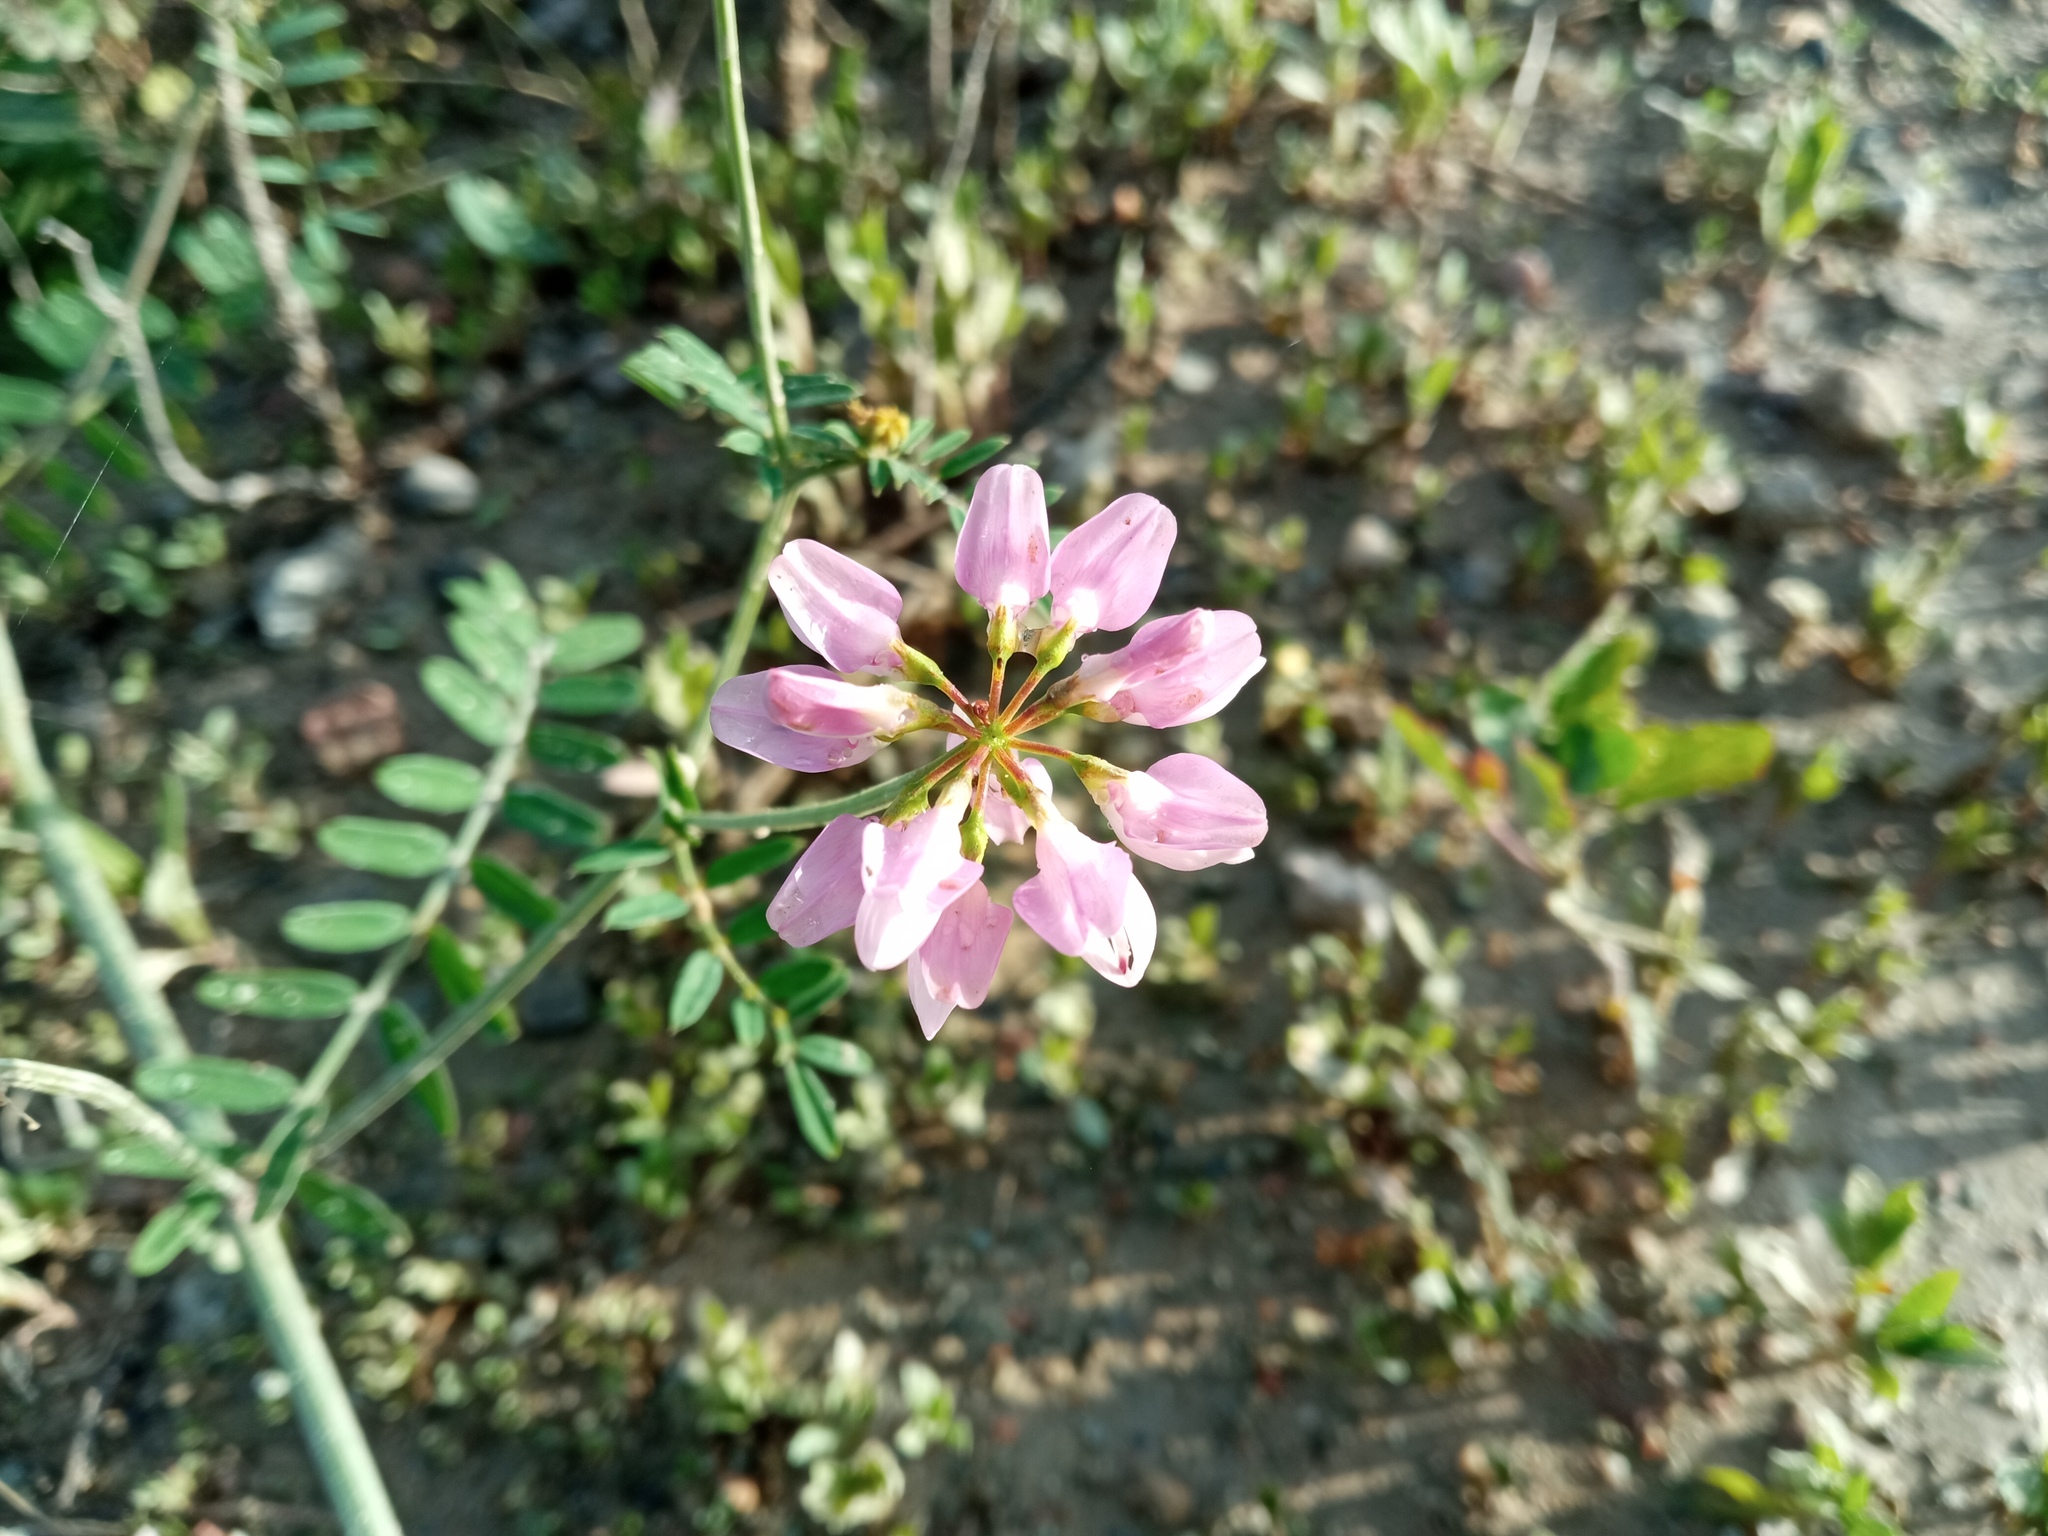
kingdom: Plantae
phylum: Tracheophyta
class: Magnoliopsida
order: Fabales
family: Fabaceae
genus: Coronilla
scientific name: Coronilla varia
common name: Crownvetch
